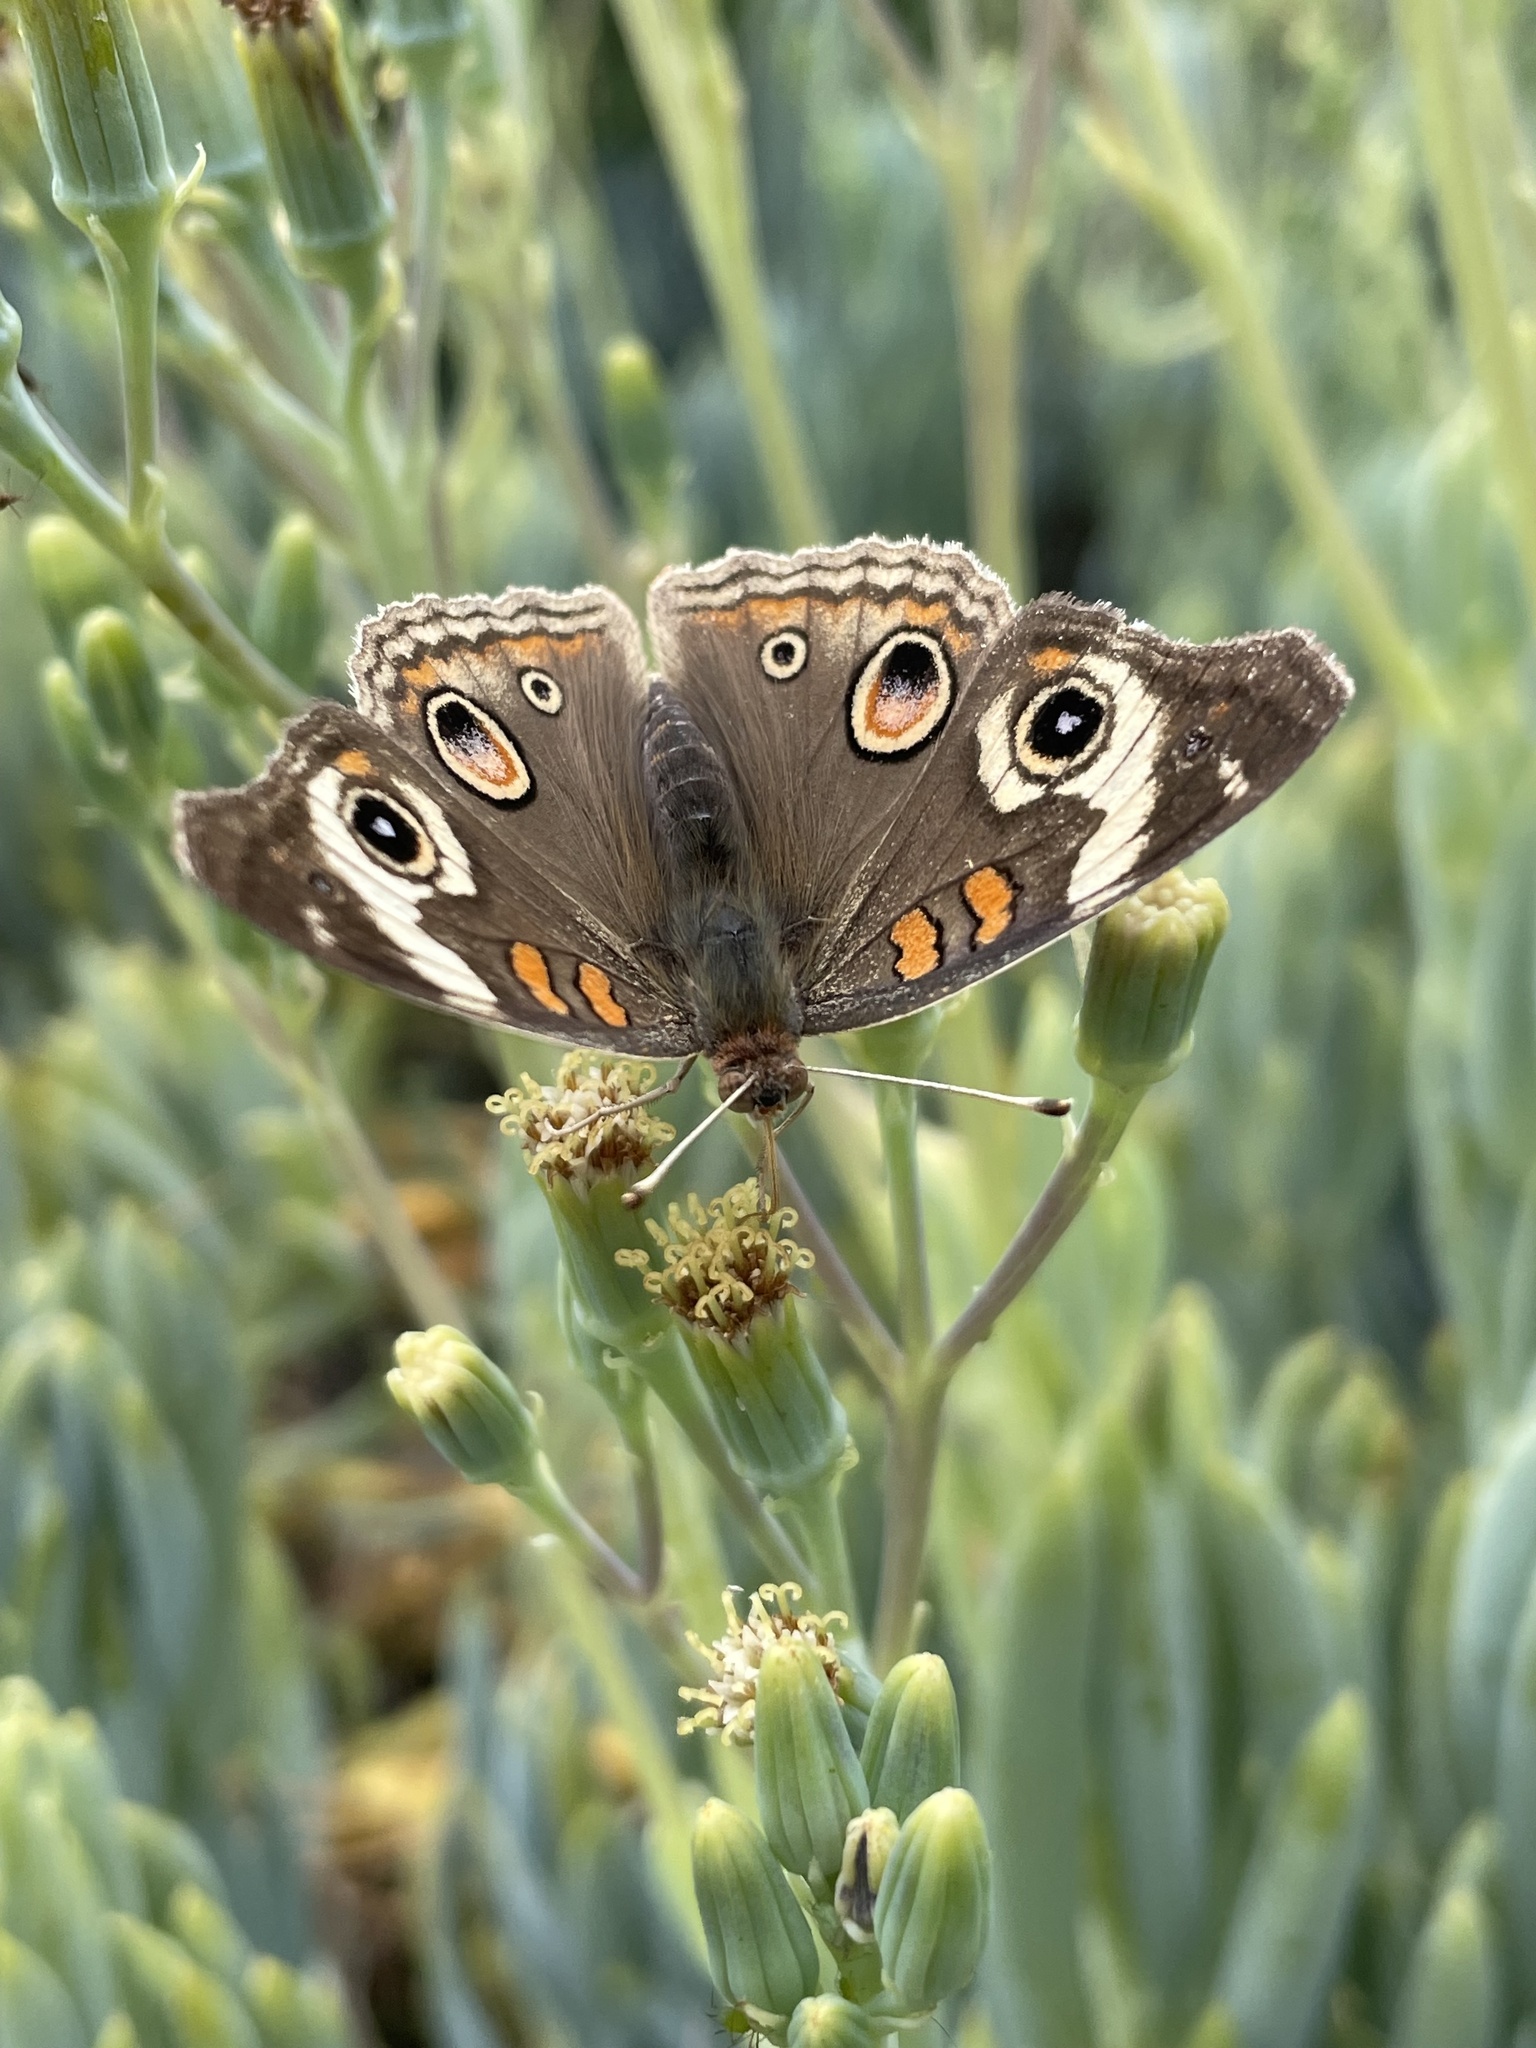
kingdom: Animalia
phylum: Arthropoda
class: Insecta
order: Lepidoptera
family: Nymphalidae
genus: Junonia
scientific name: Junonia grisea
